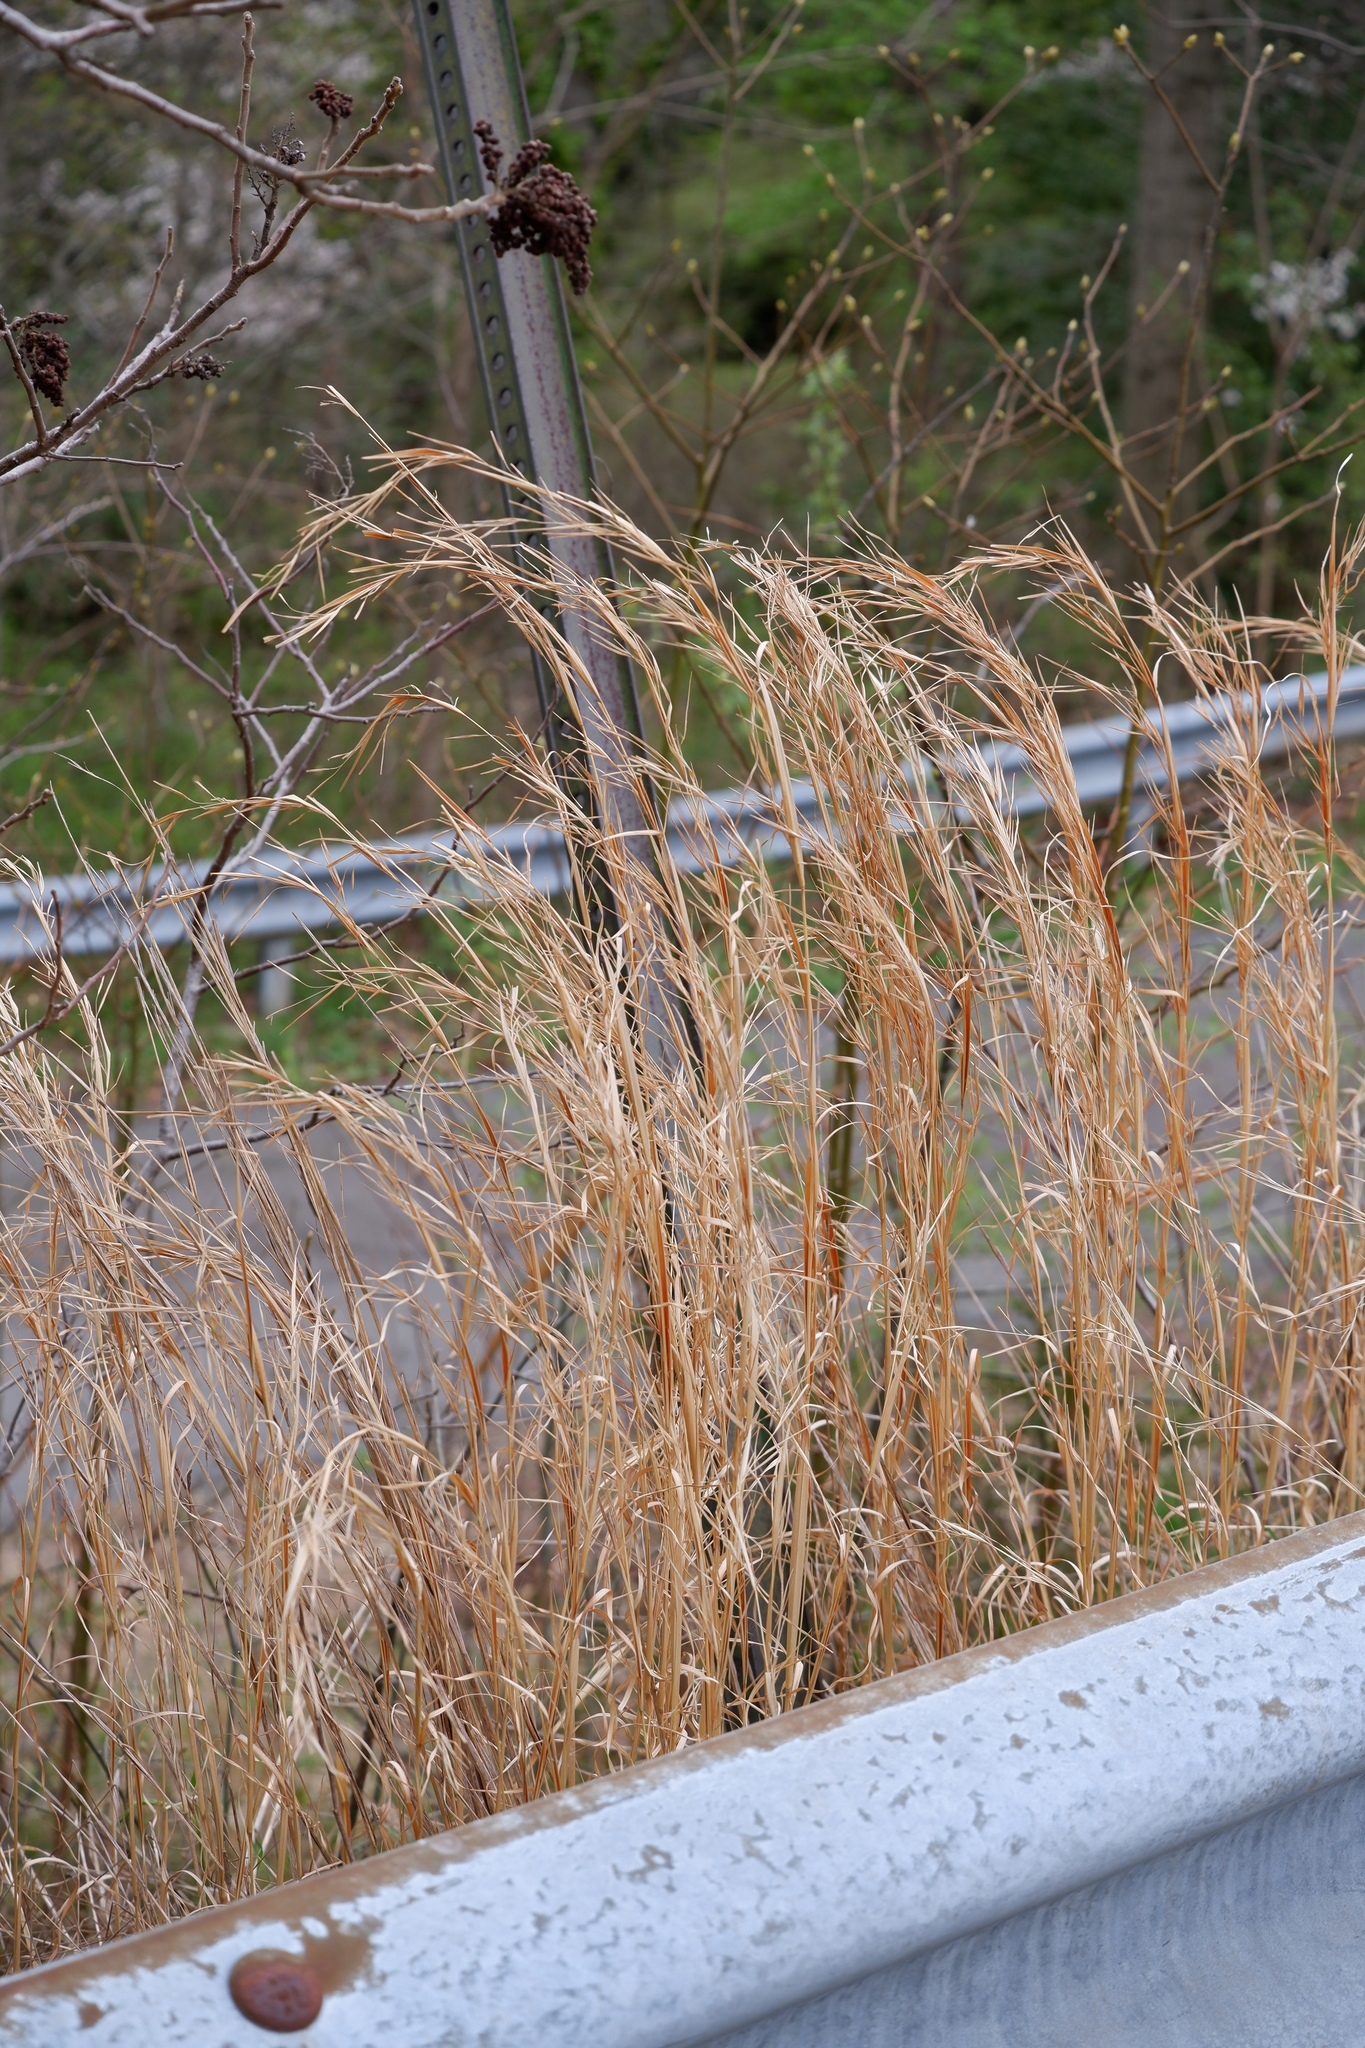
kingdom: Plantae
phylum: Tracheophyta
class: Liliopsida
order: Poales
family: Poaceae
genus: Andropogon
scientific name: Andropogon virginicus
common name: Broomsedge bluestem
